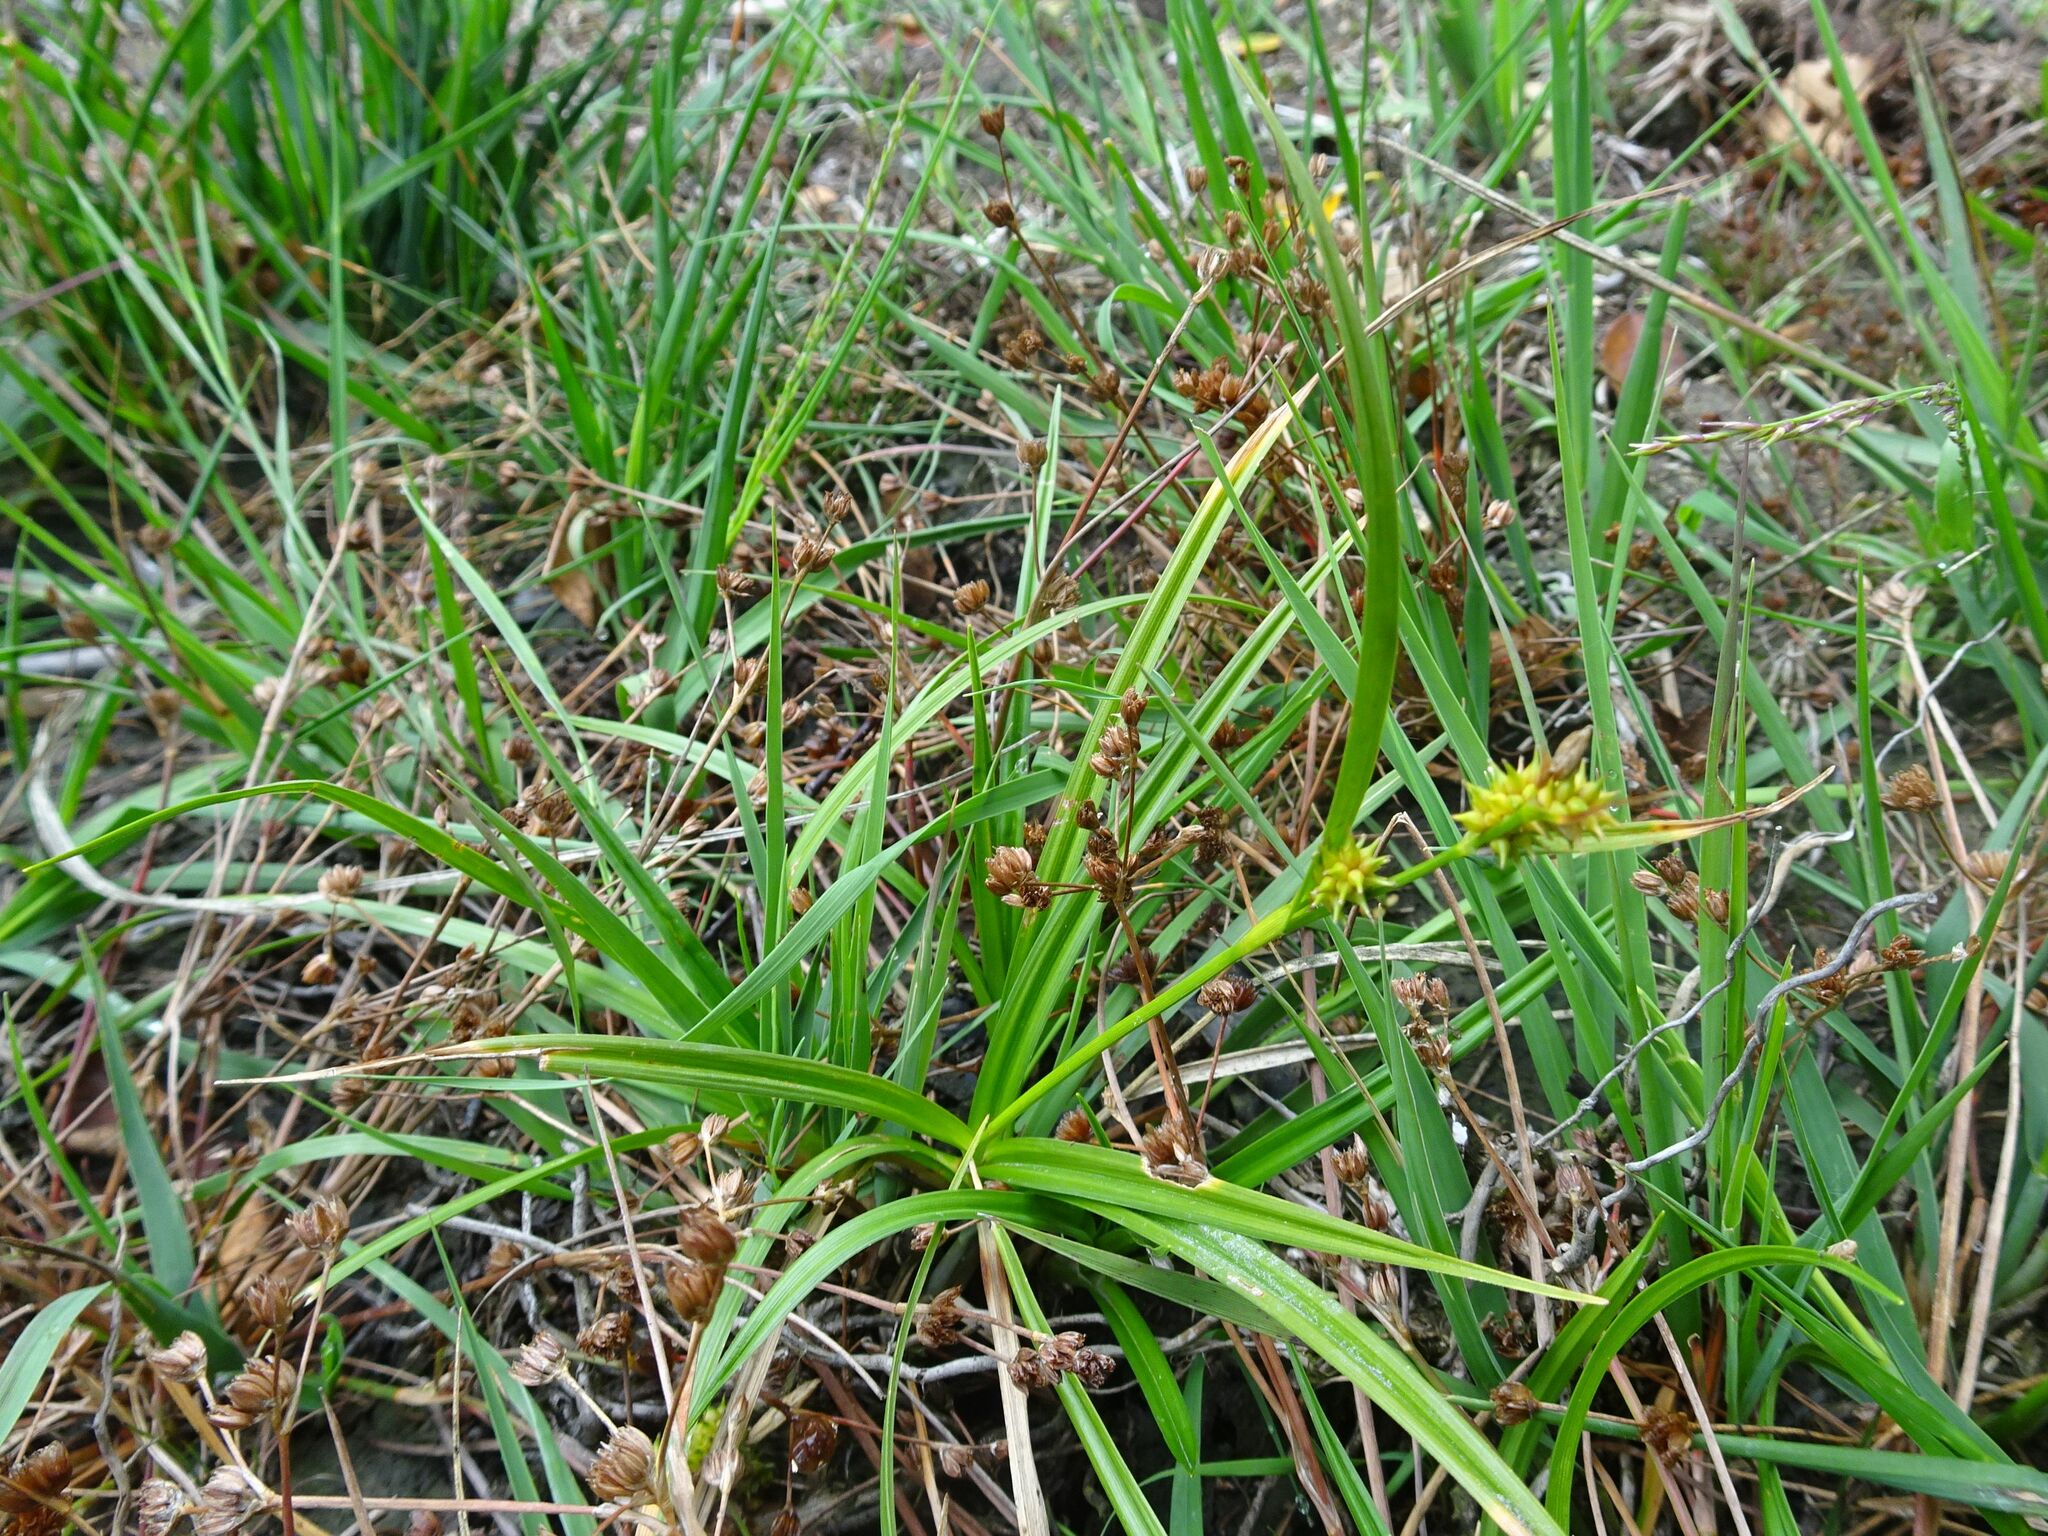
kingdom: Plantae
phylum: Tracheophyta
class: Liliopsida
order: Poales
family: Cyperaceae
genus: Carex
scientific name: Carex demissa
